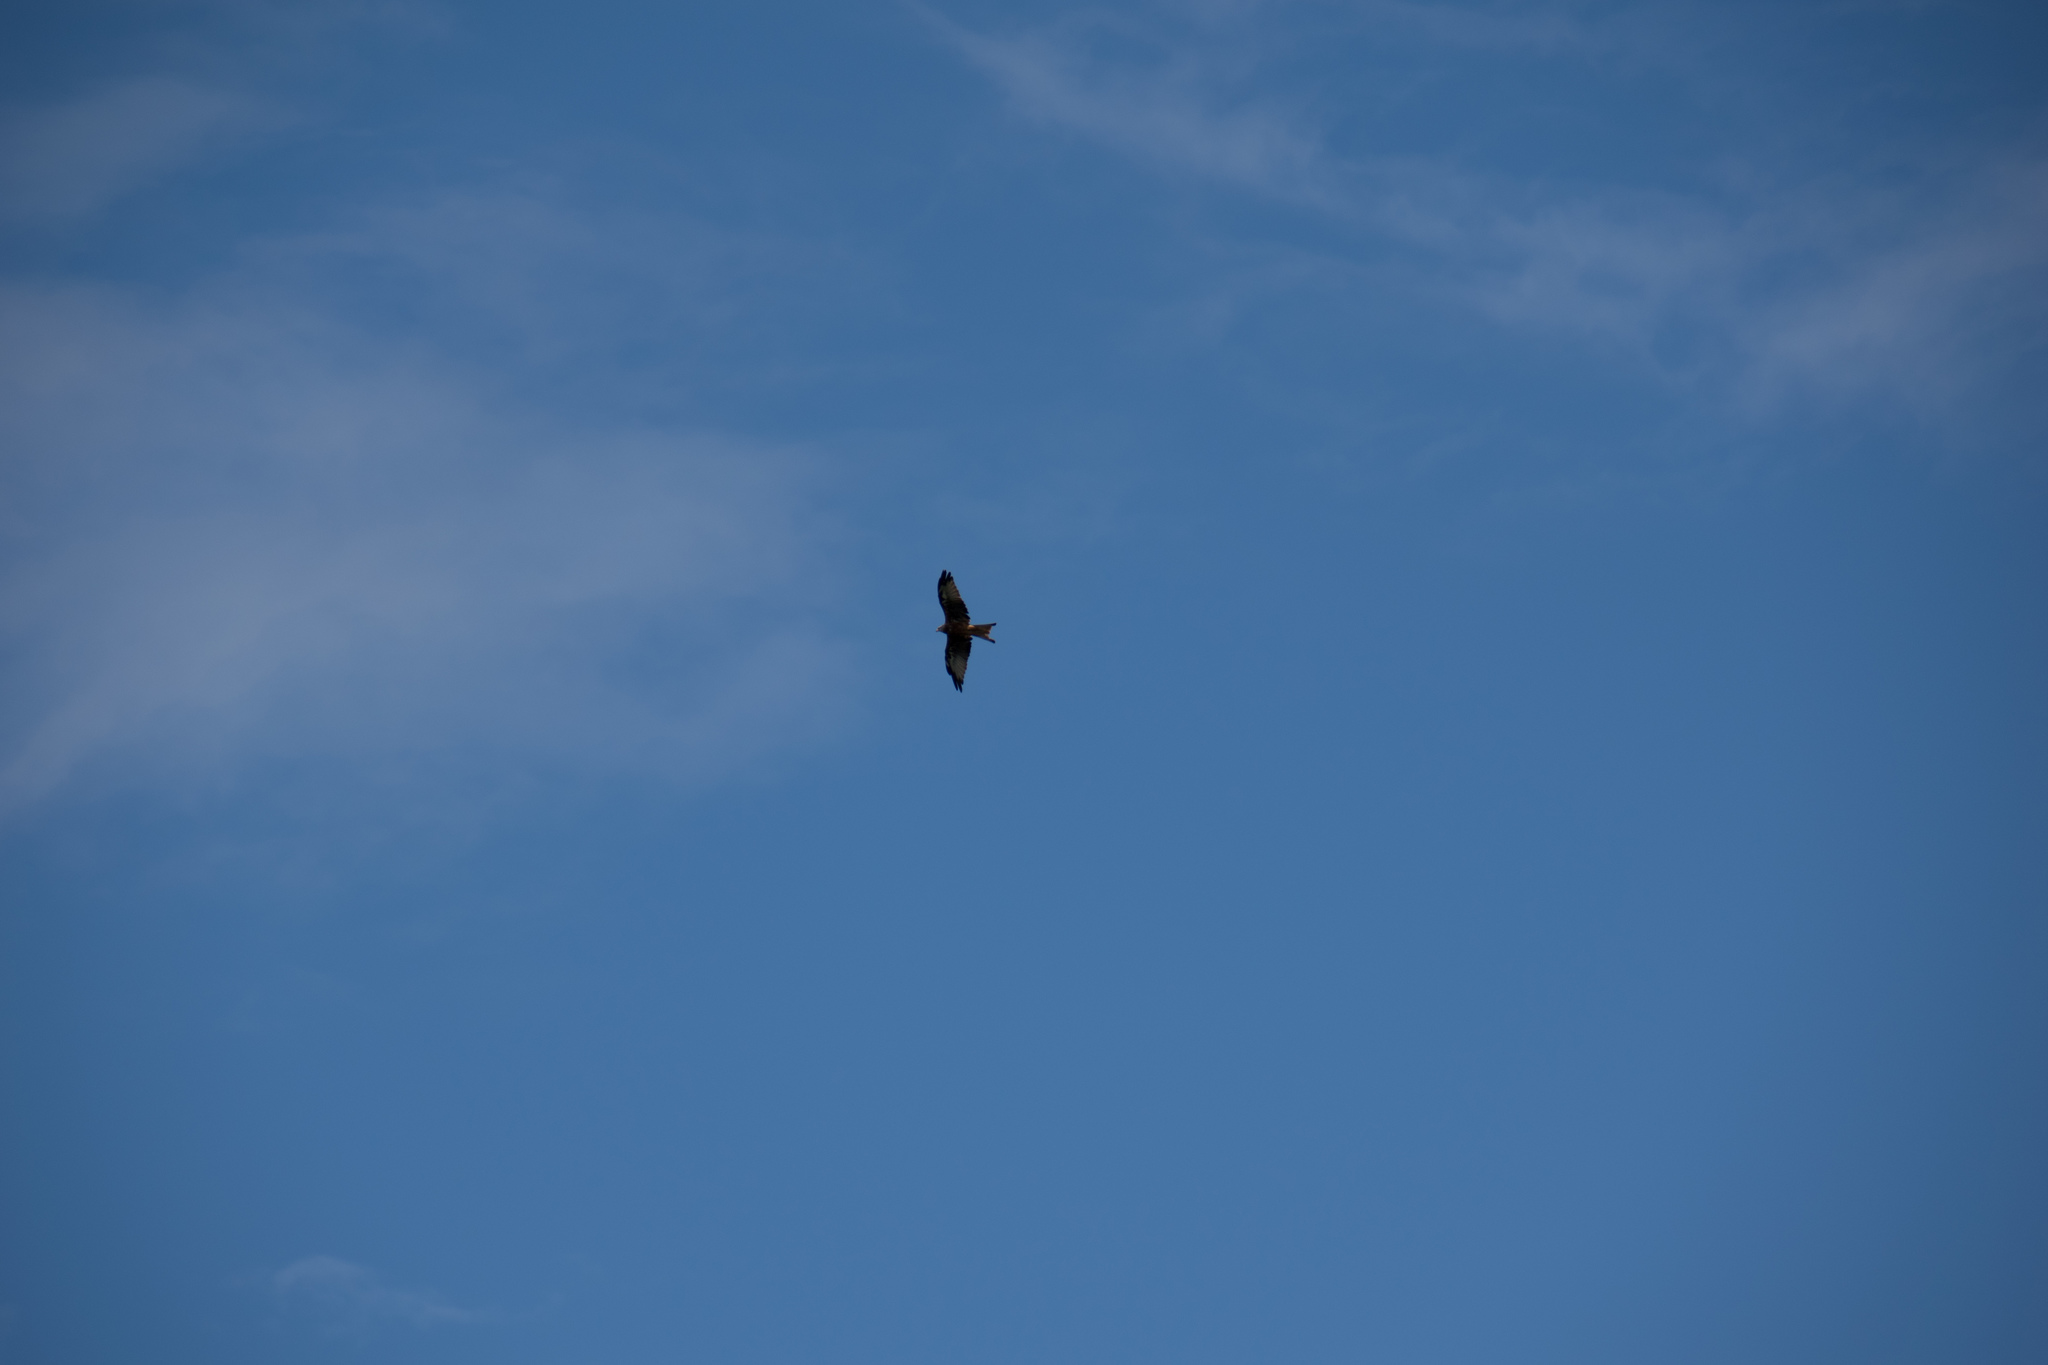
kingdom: Animalia
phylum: Chordata
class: Aves
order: Accipitriformes
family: Accipitridae
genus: Milvus
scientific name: Milvus milvus
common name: Red kite
